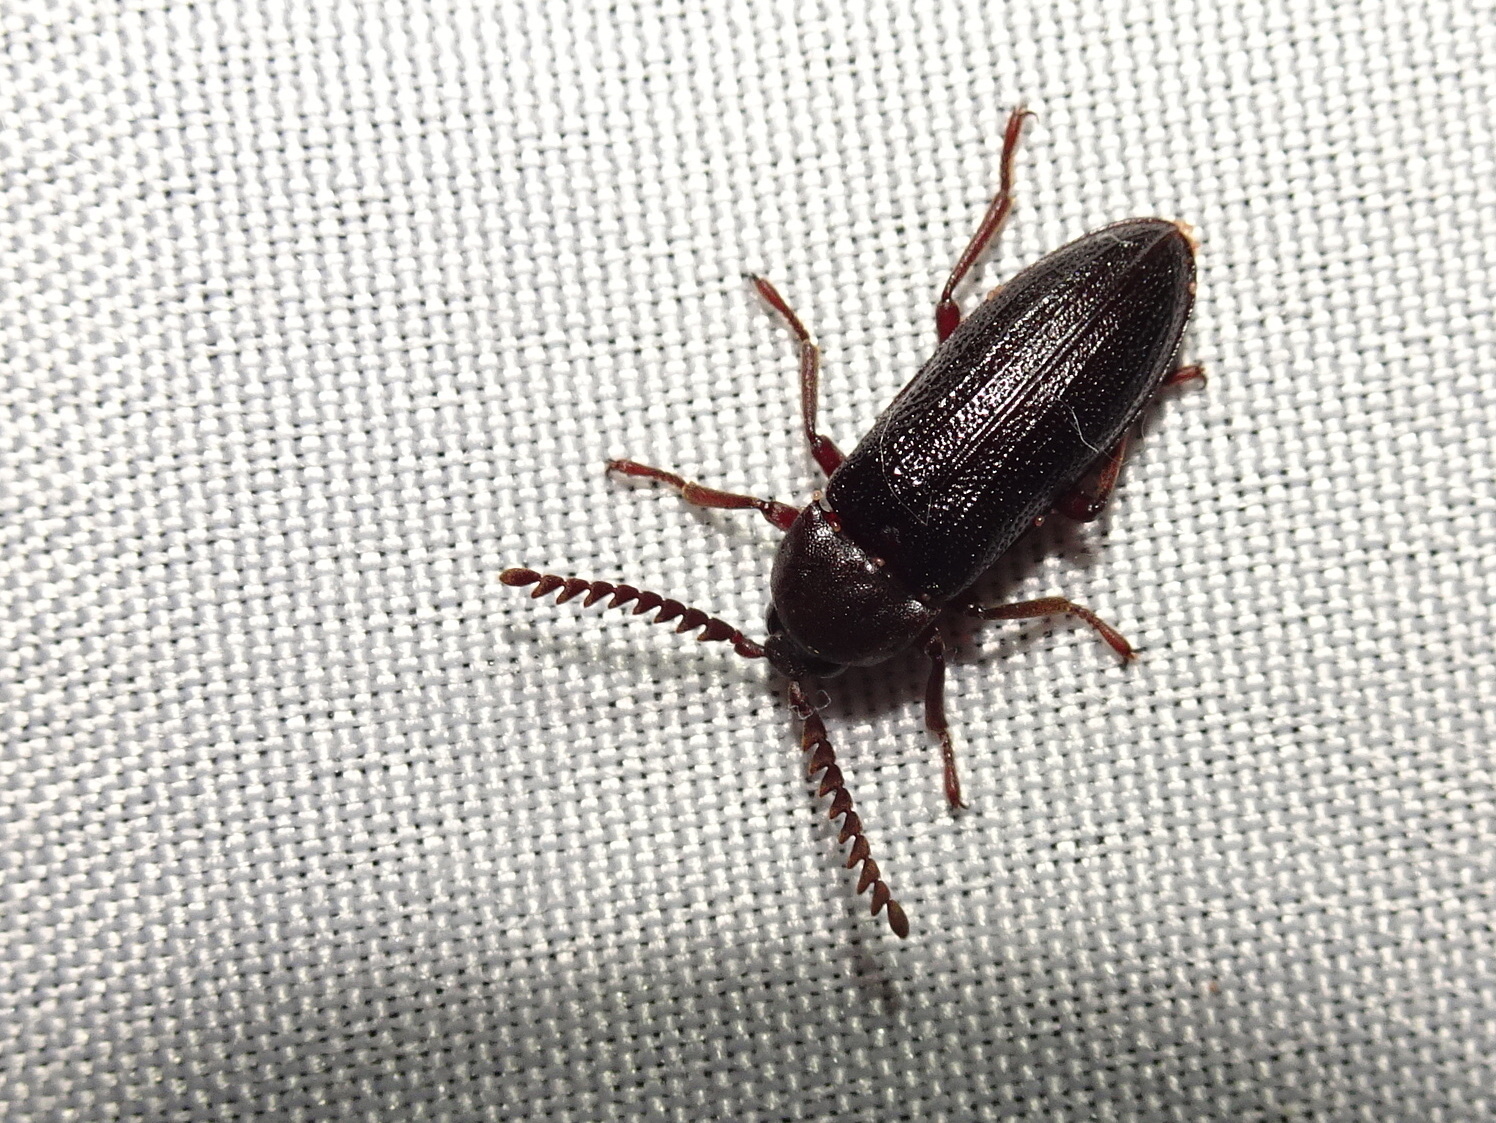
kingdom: Animalia
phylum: Arthropoda
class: Insecta
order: Coleoptera
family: Callirhipidae
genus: Zenoa
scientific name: Zenoa picea
